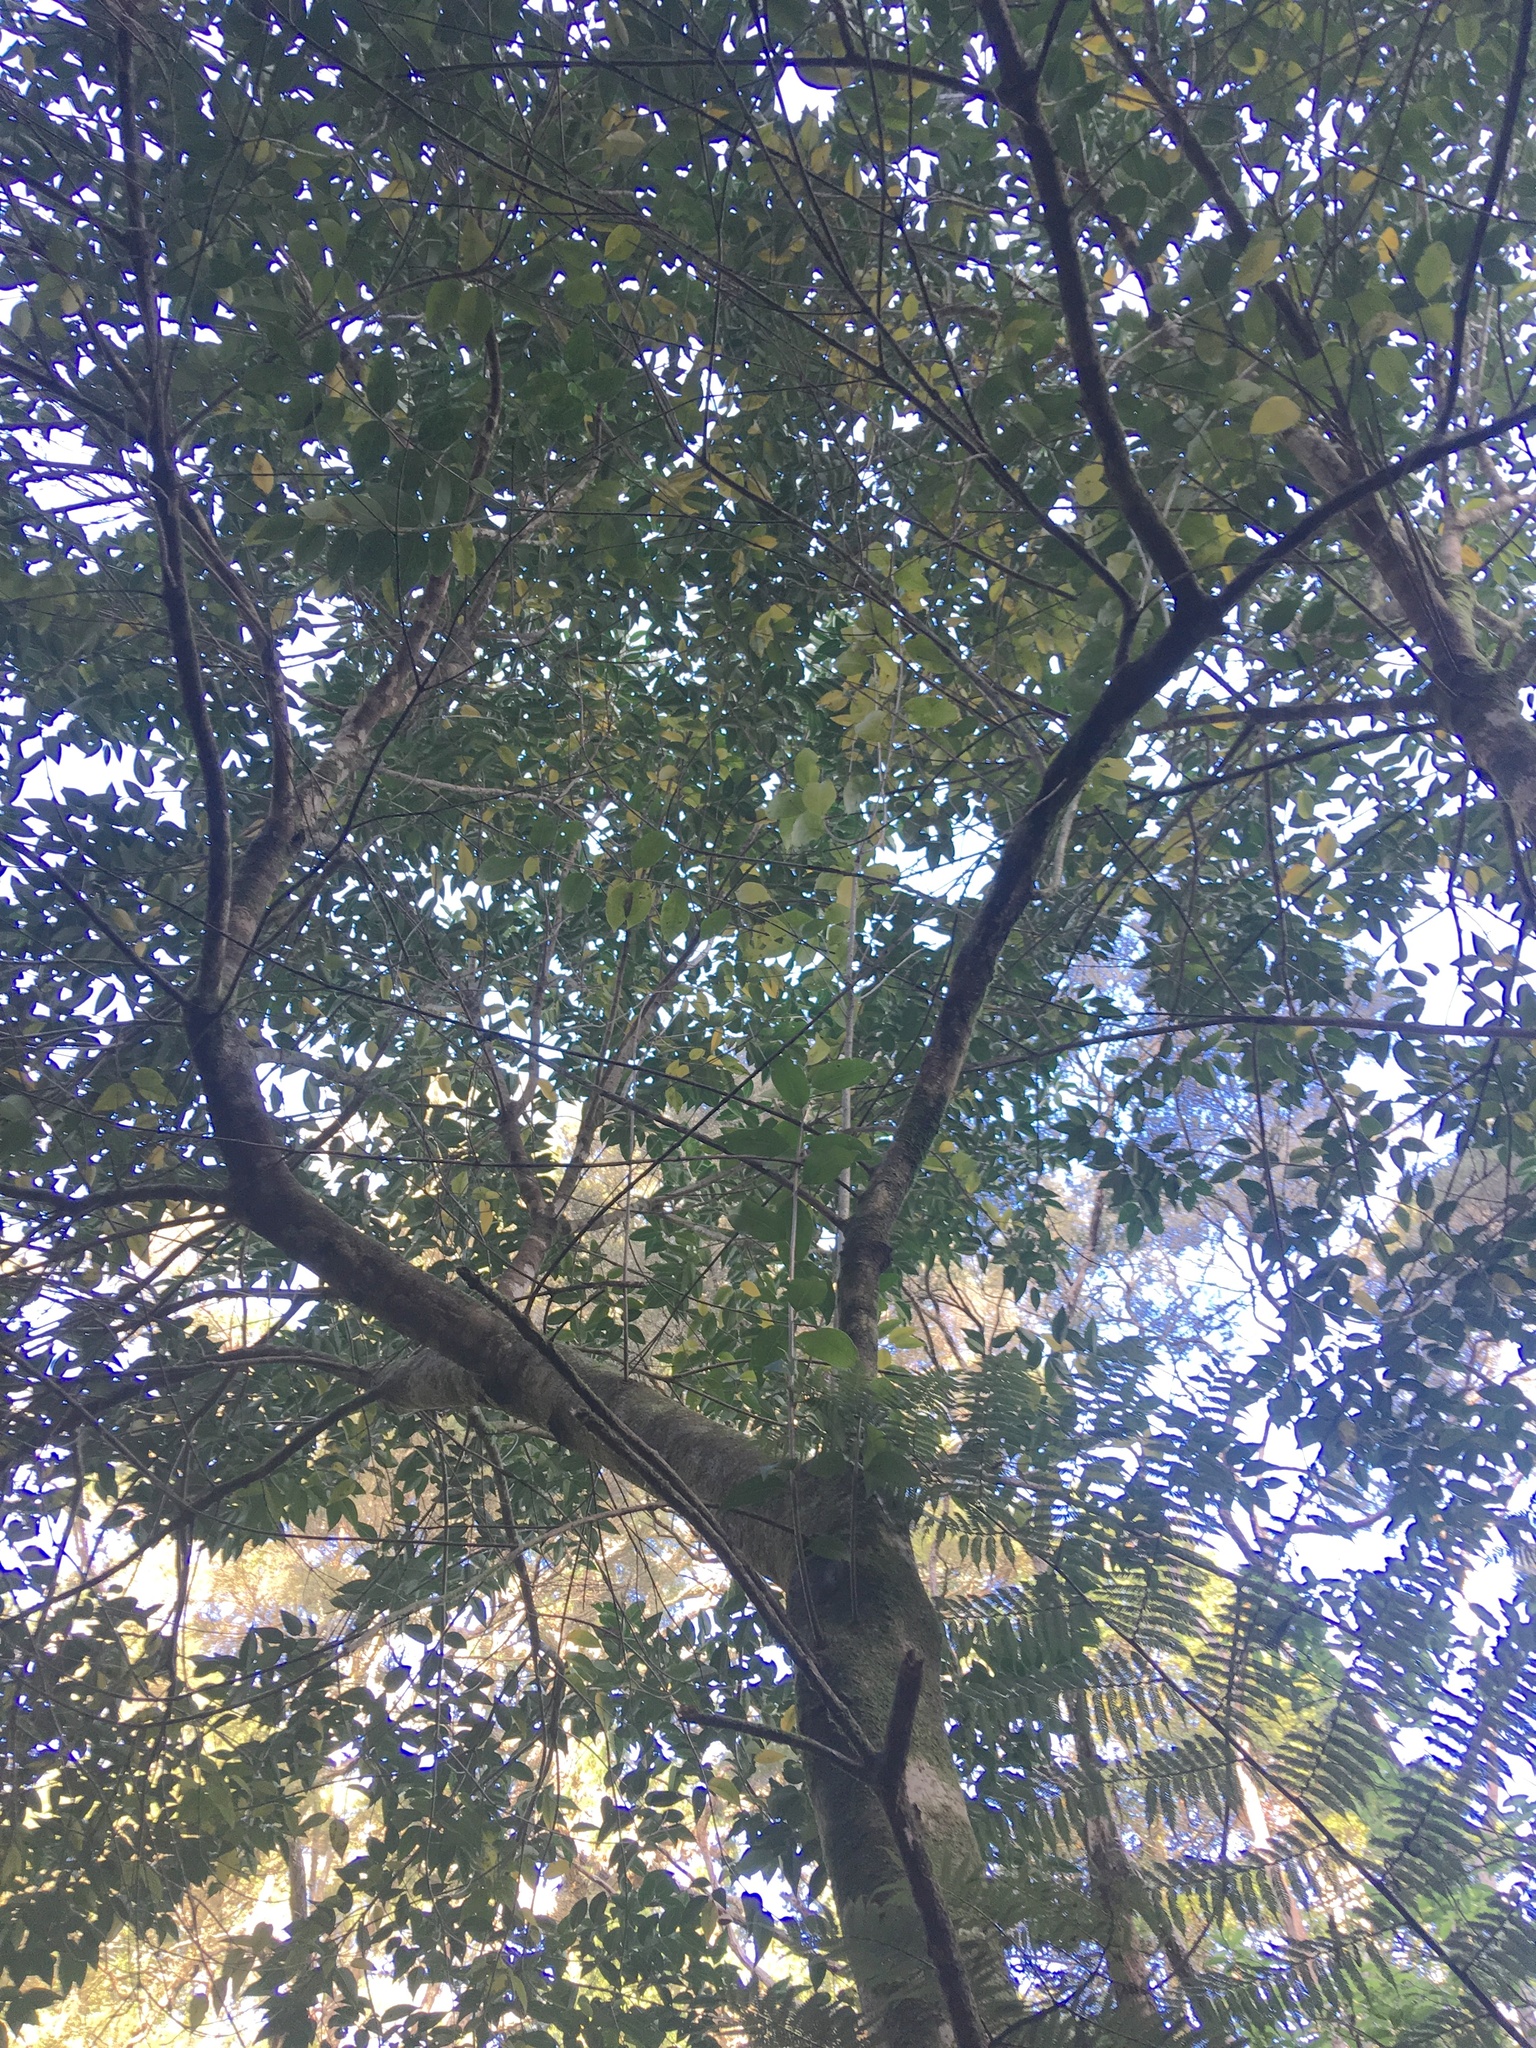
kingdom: Plantae
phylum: Tracheophyta
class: Magnoliopsida
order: Lamiales
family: Oleaceae
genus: Ligustrum
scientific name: Ligustrum lucidum
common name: Glossy privet
